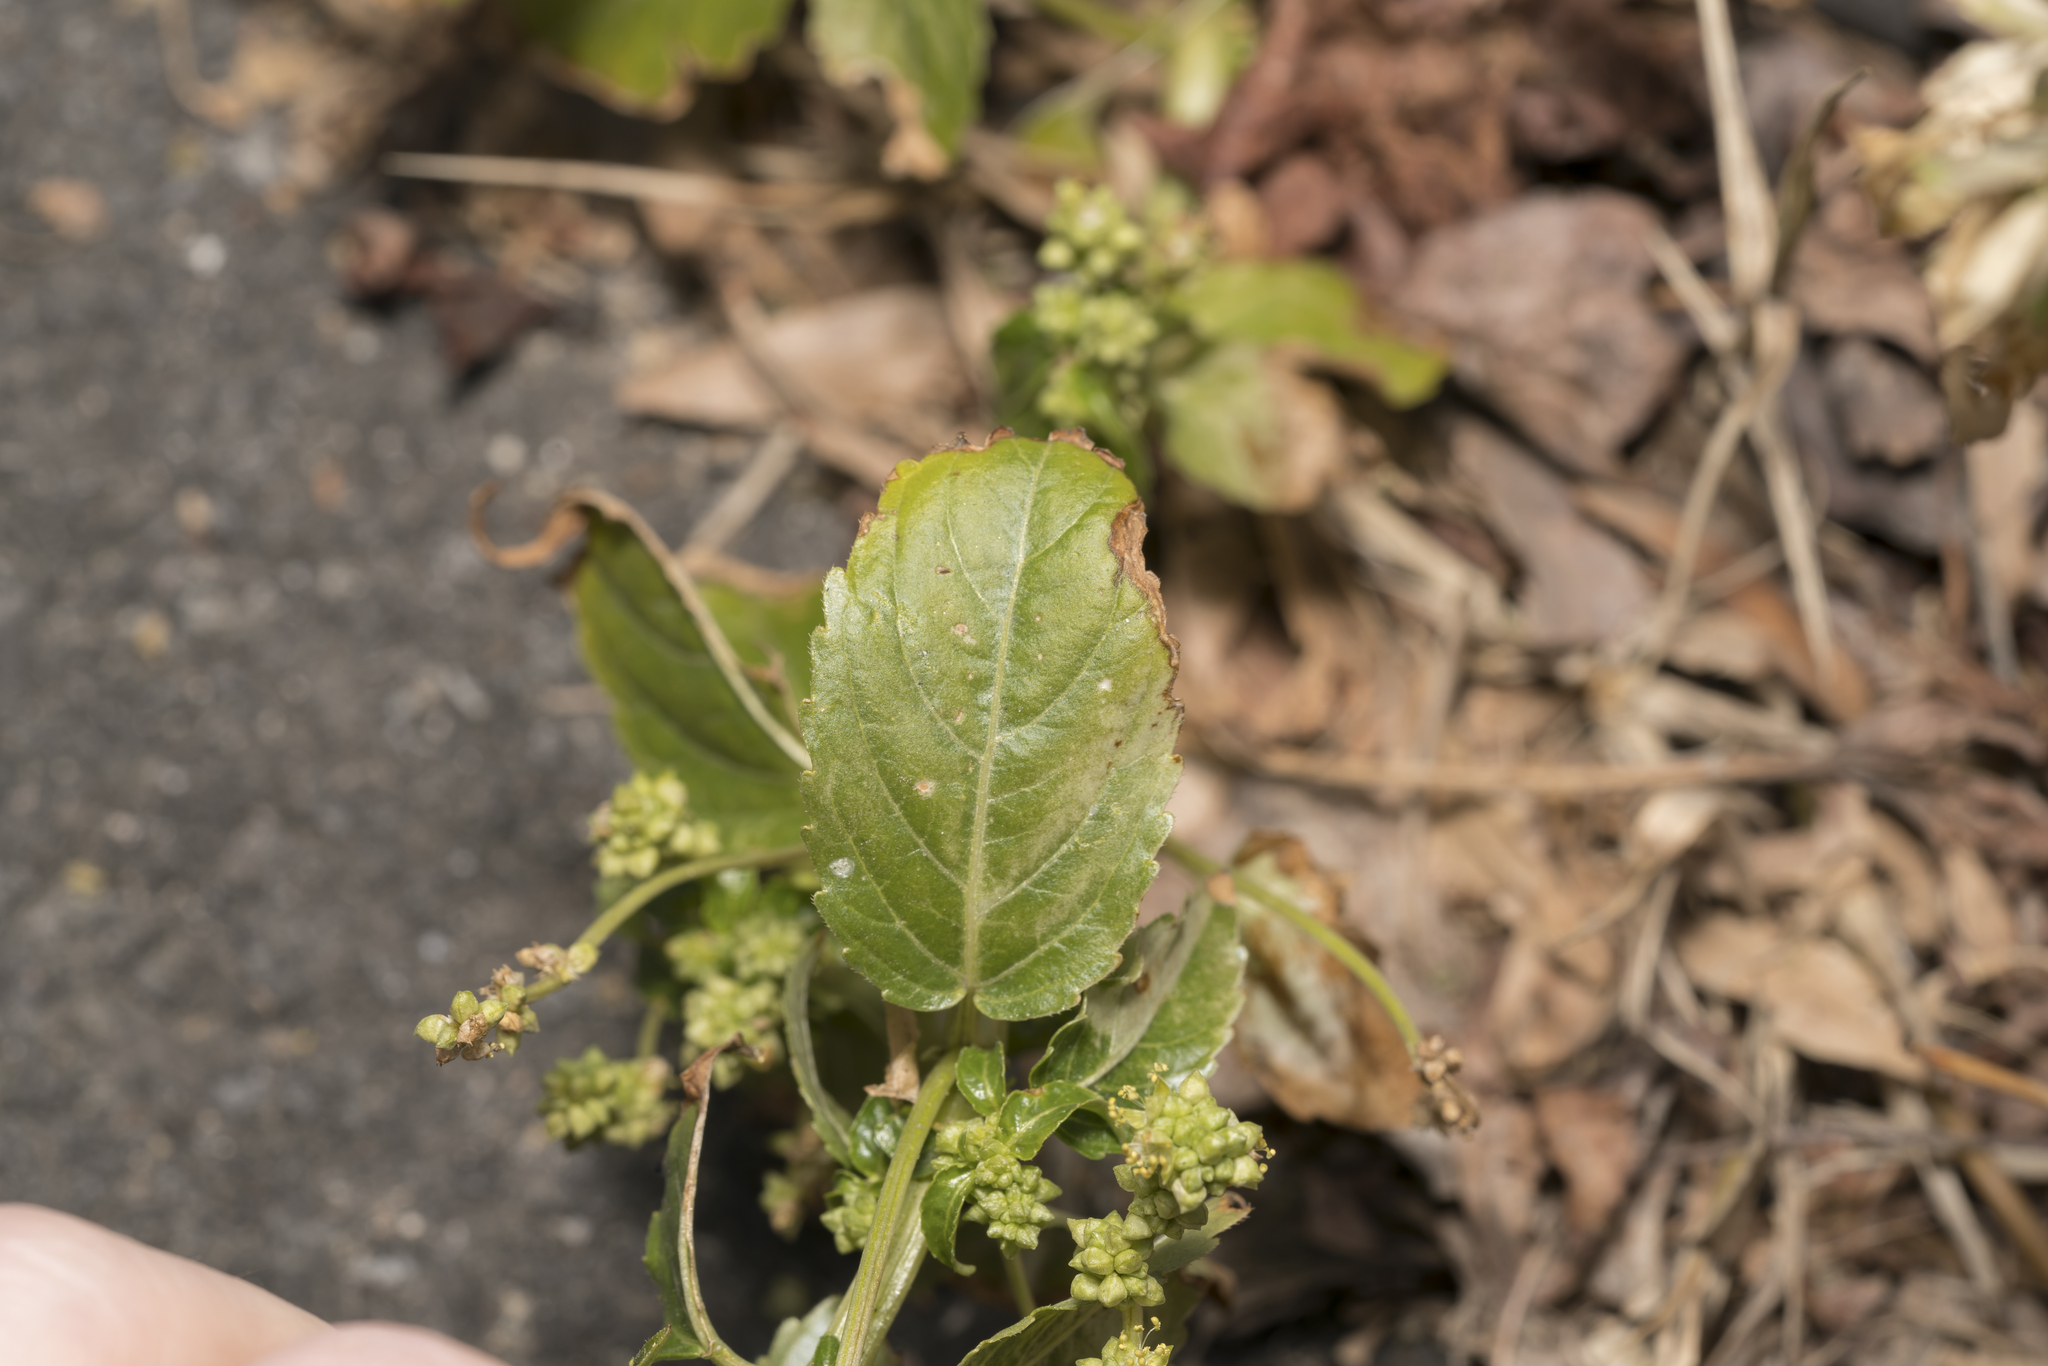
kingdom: Plantae
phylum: Tracheophyta
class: Magnoliopsida
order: Malpighiales
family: Euphorbiaceae
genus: Mercurialis
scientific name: Mercurialis annua
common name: Annual mercury
